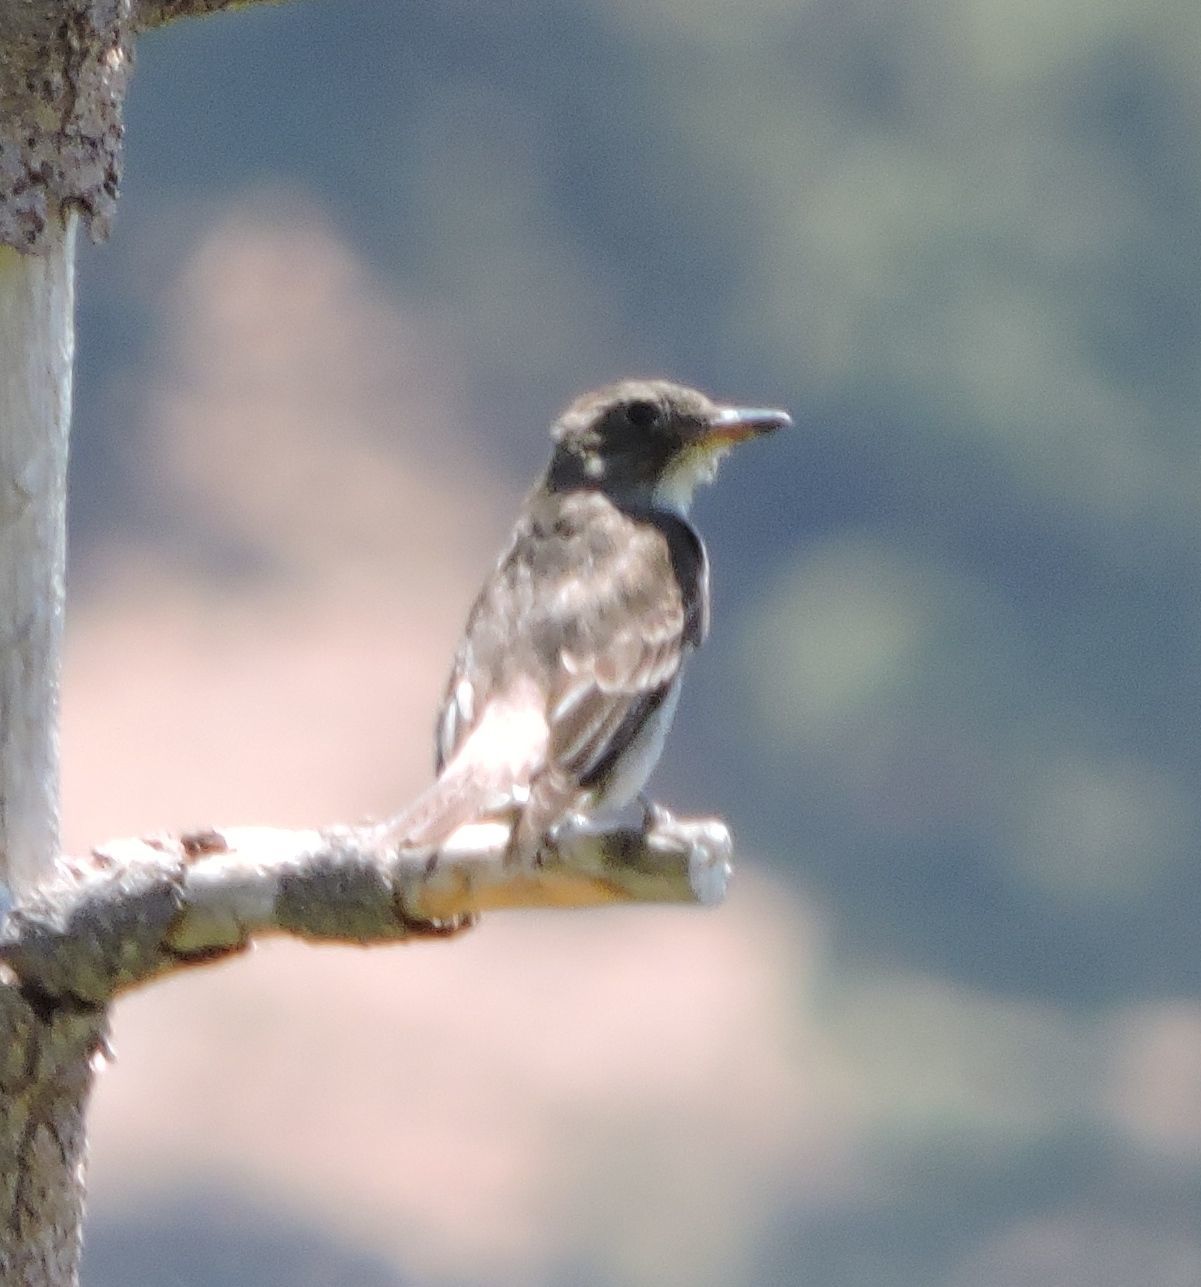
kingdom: Animalia
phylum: Chordata
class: Aves
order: Passeriformes
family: Tyrannidae
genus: Contopus
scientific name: Contopus cooperi
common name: Olive-sided flycatcher
